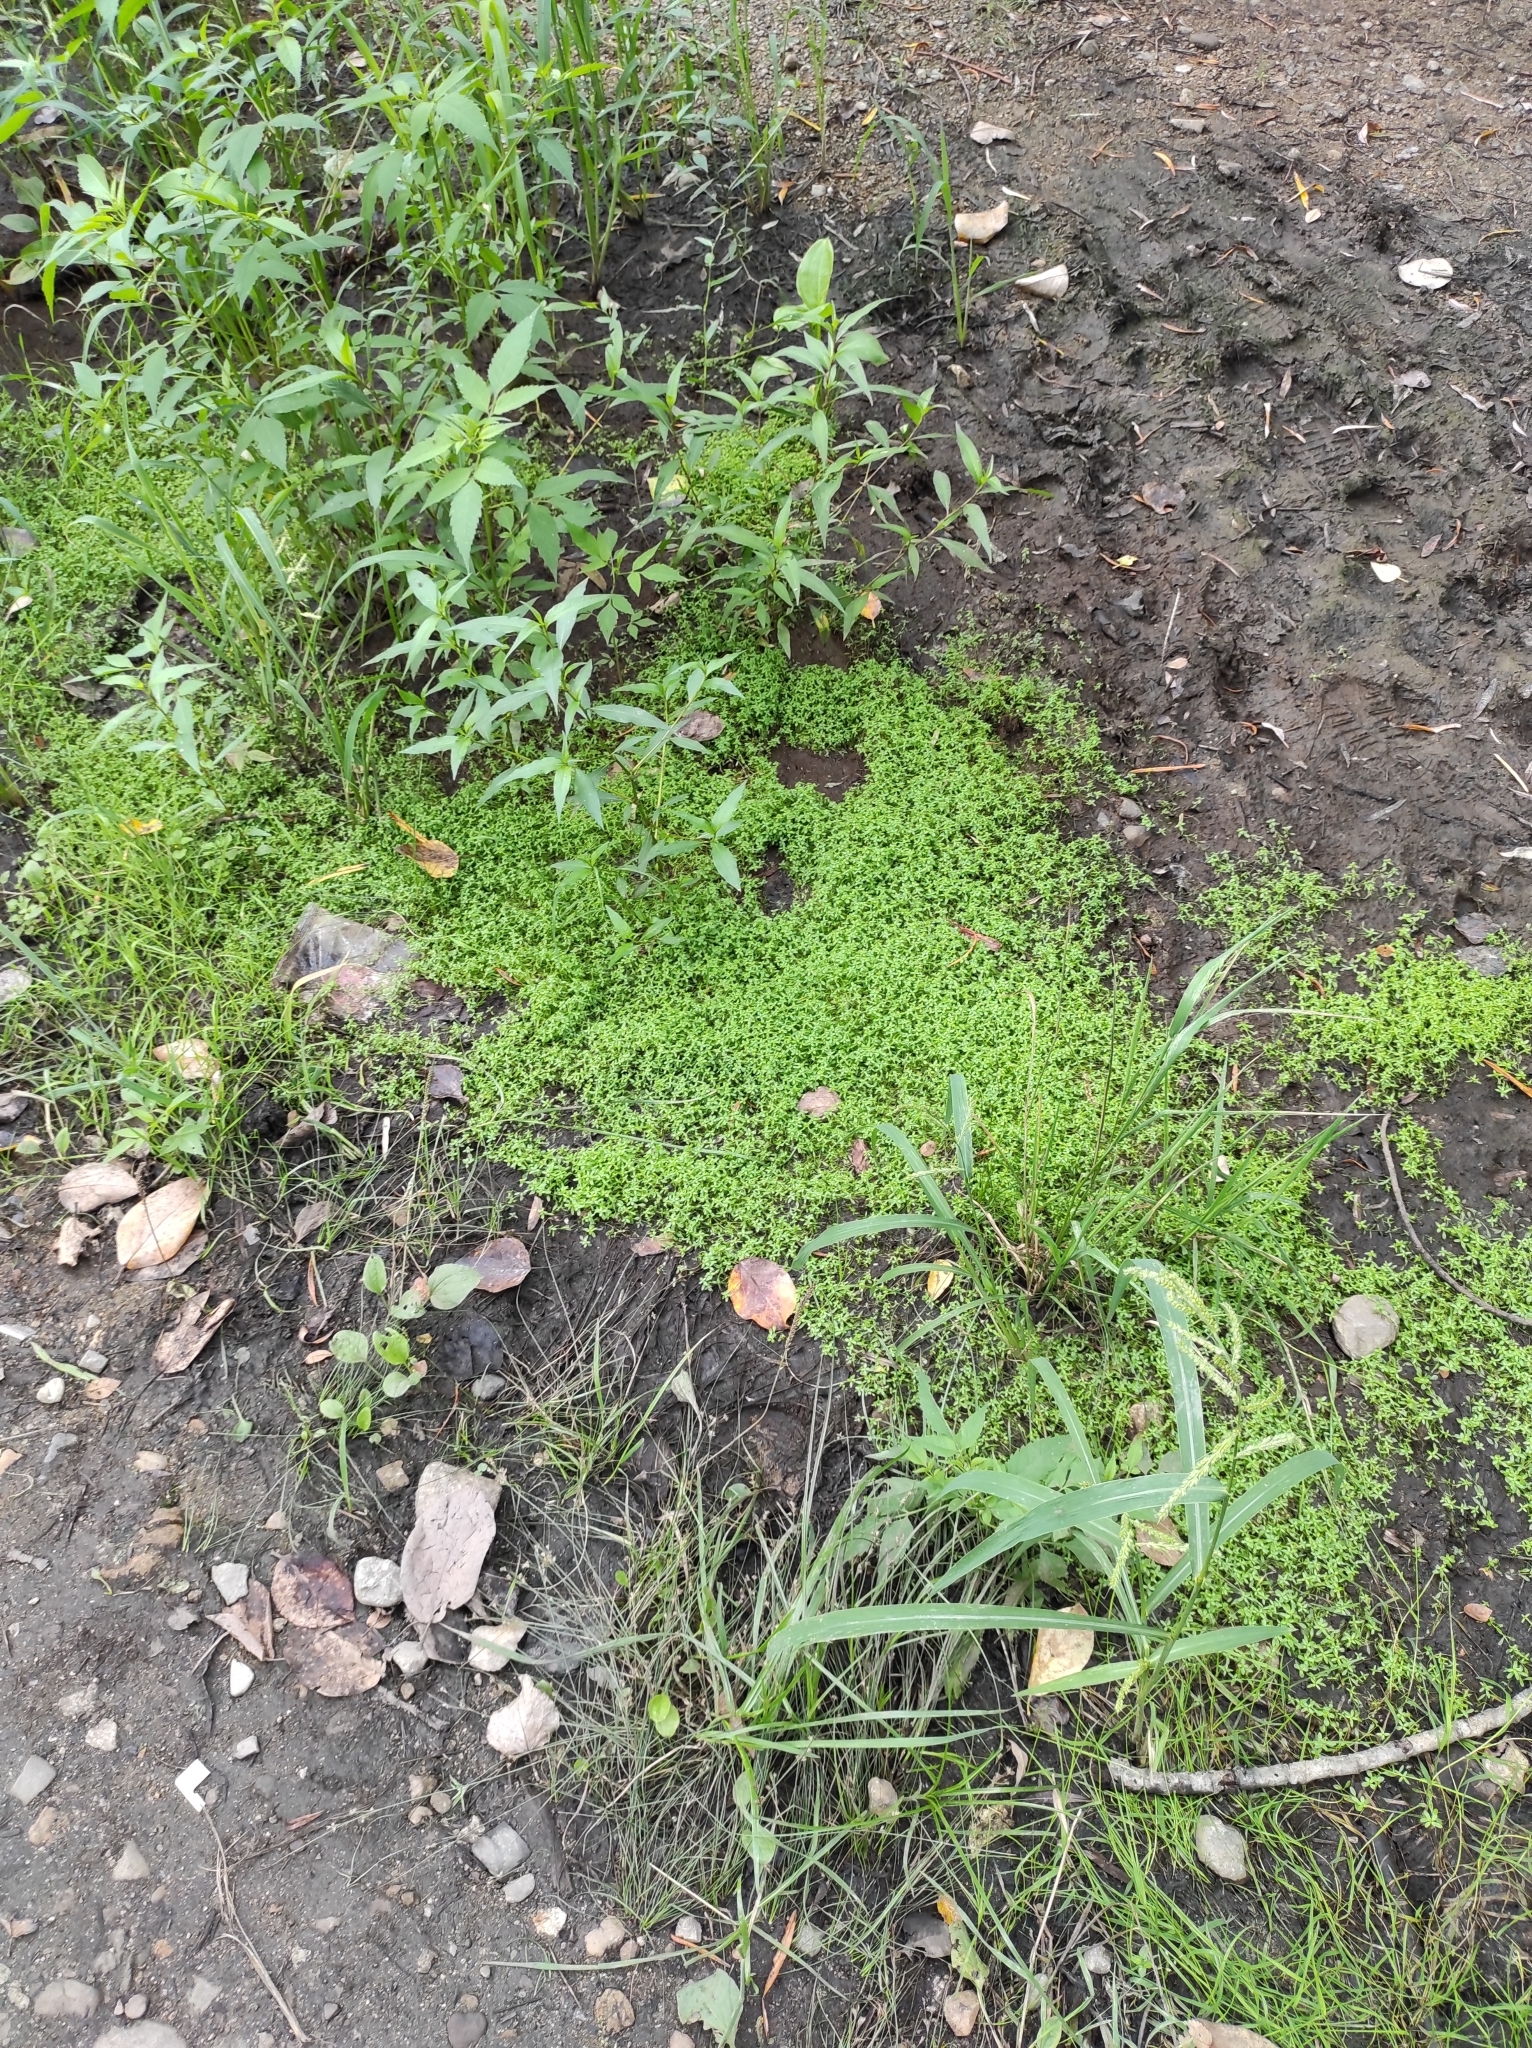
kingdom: Plantae
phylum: Tracheophyta
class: Magnoliopsida
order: Lamiales
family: Plantaginaceae
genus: Callitriche
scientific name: Callitriche palustris
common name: Spring water-starwort
